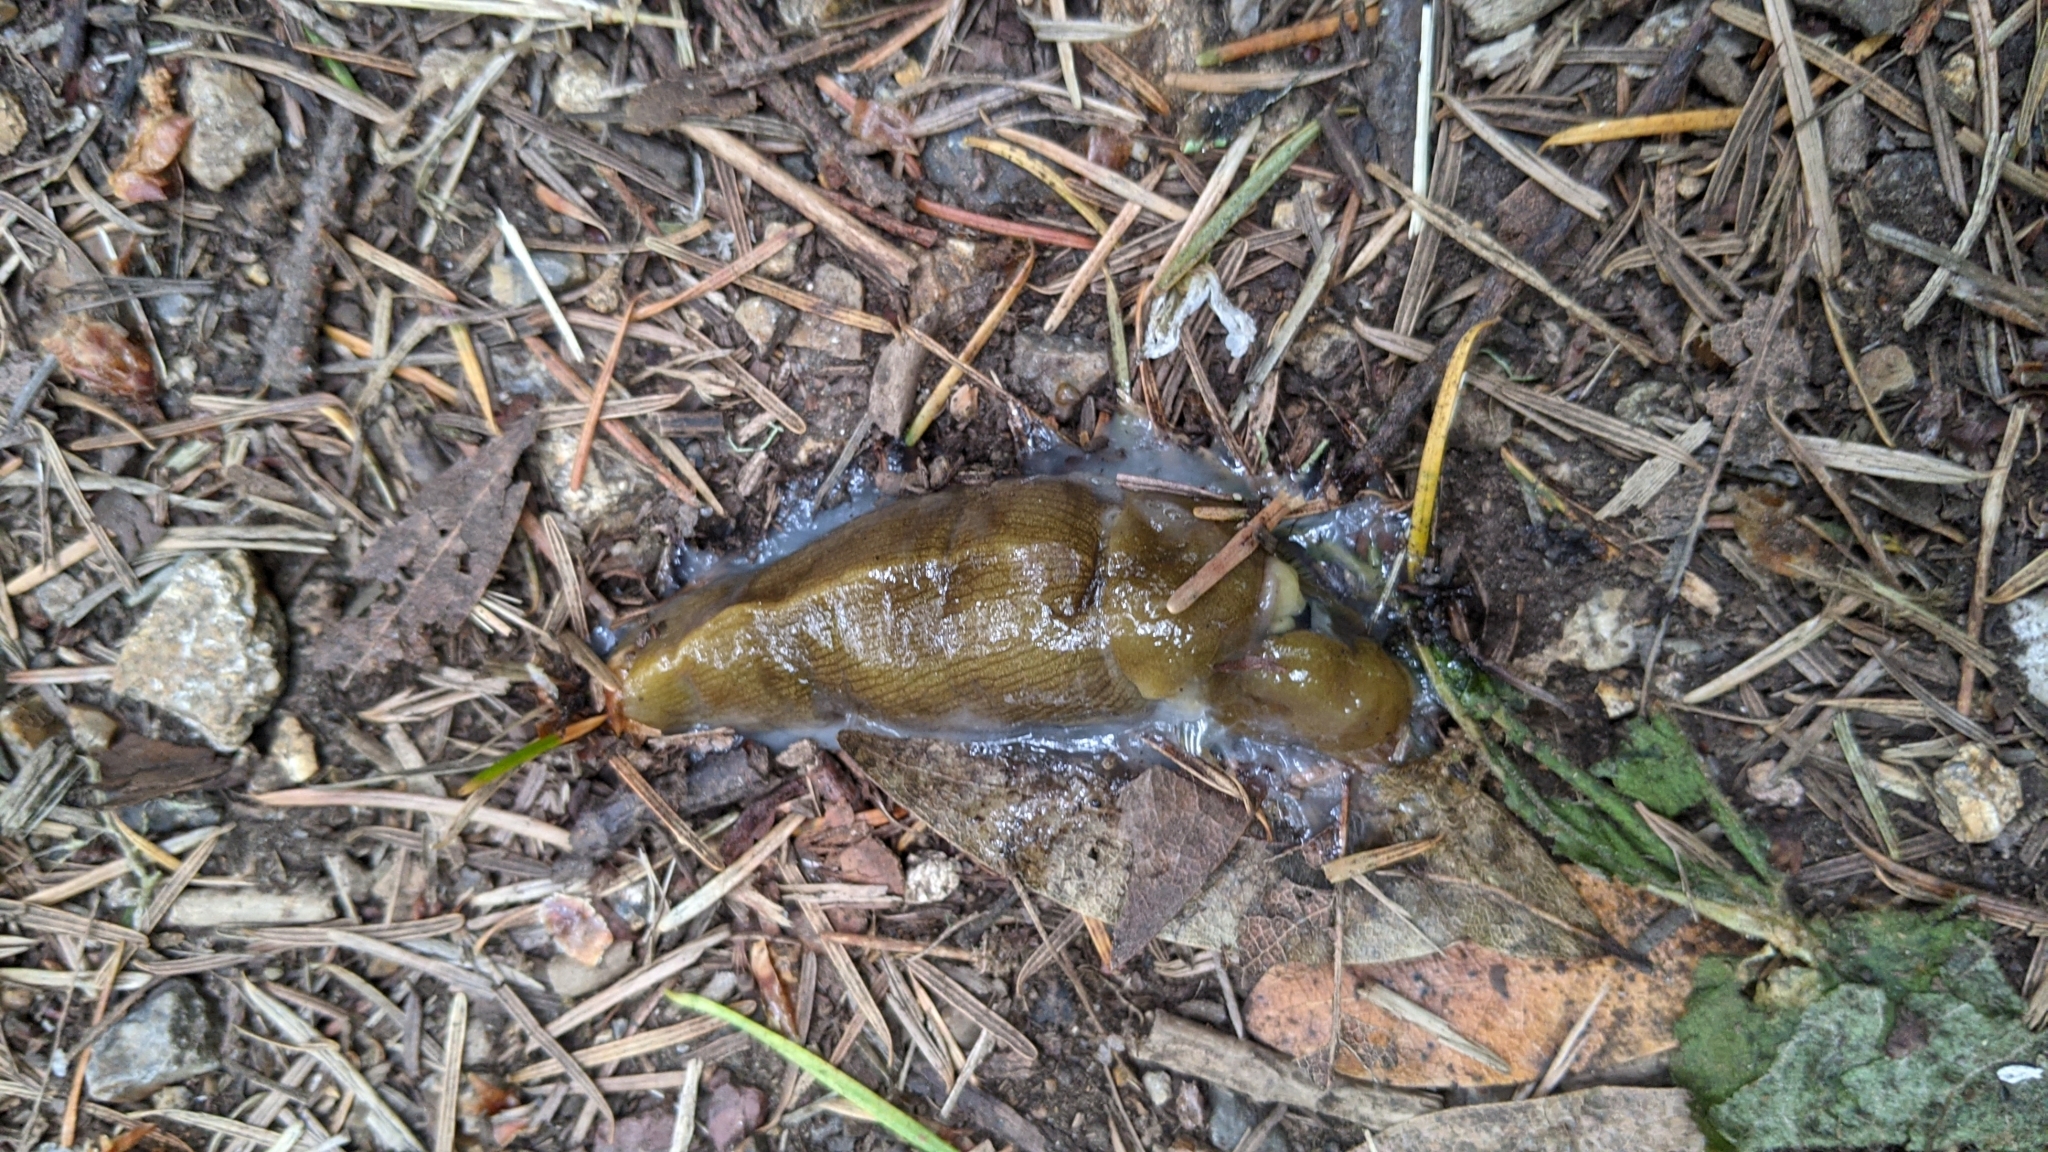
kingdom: Animalia
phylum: Mollusca
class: Gastropoda
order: Stylommatophora
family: Ariolimacidae
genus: Ariolimax
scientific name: Ariolimax buttoni
